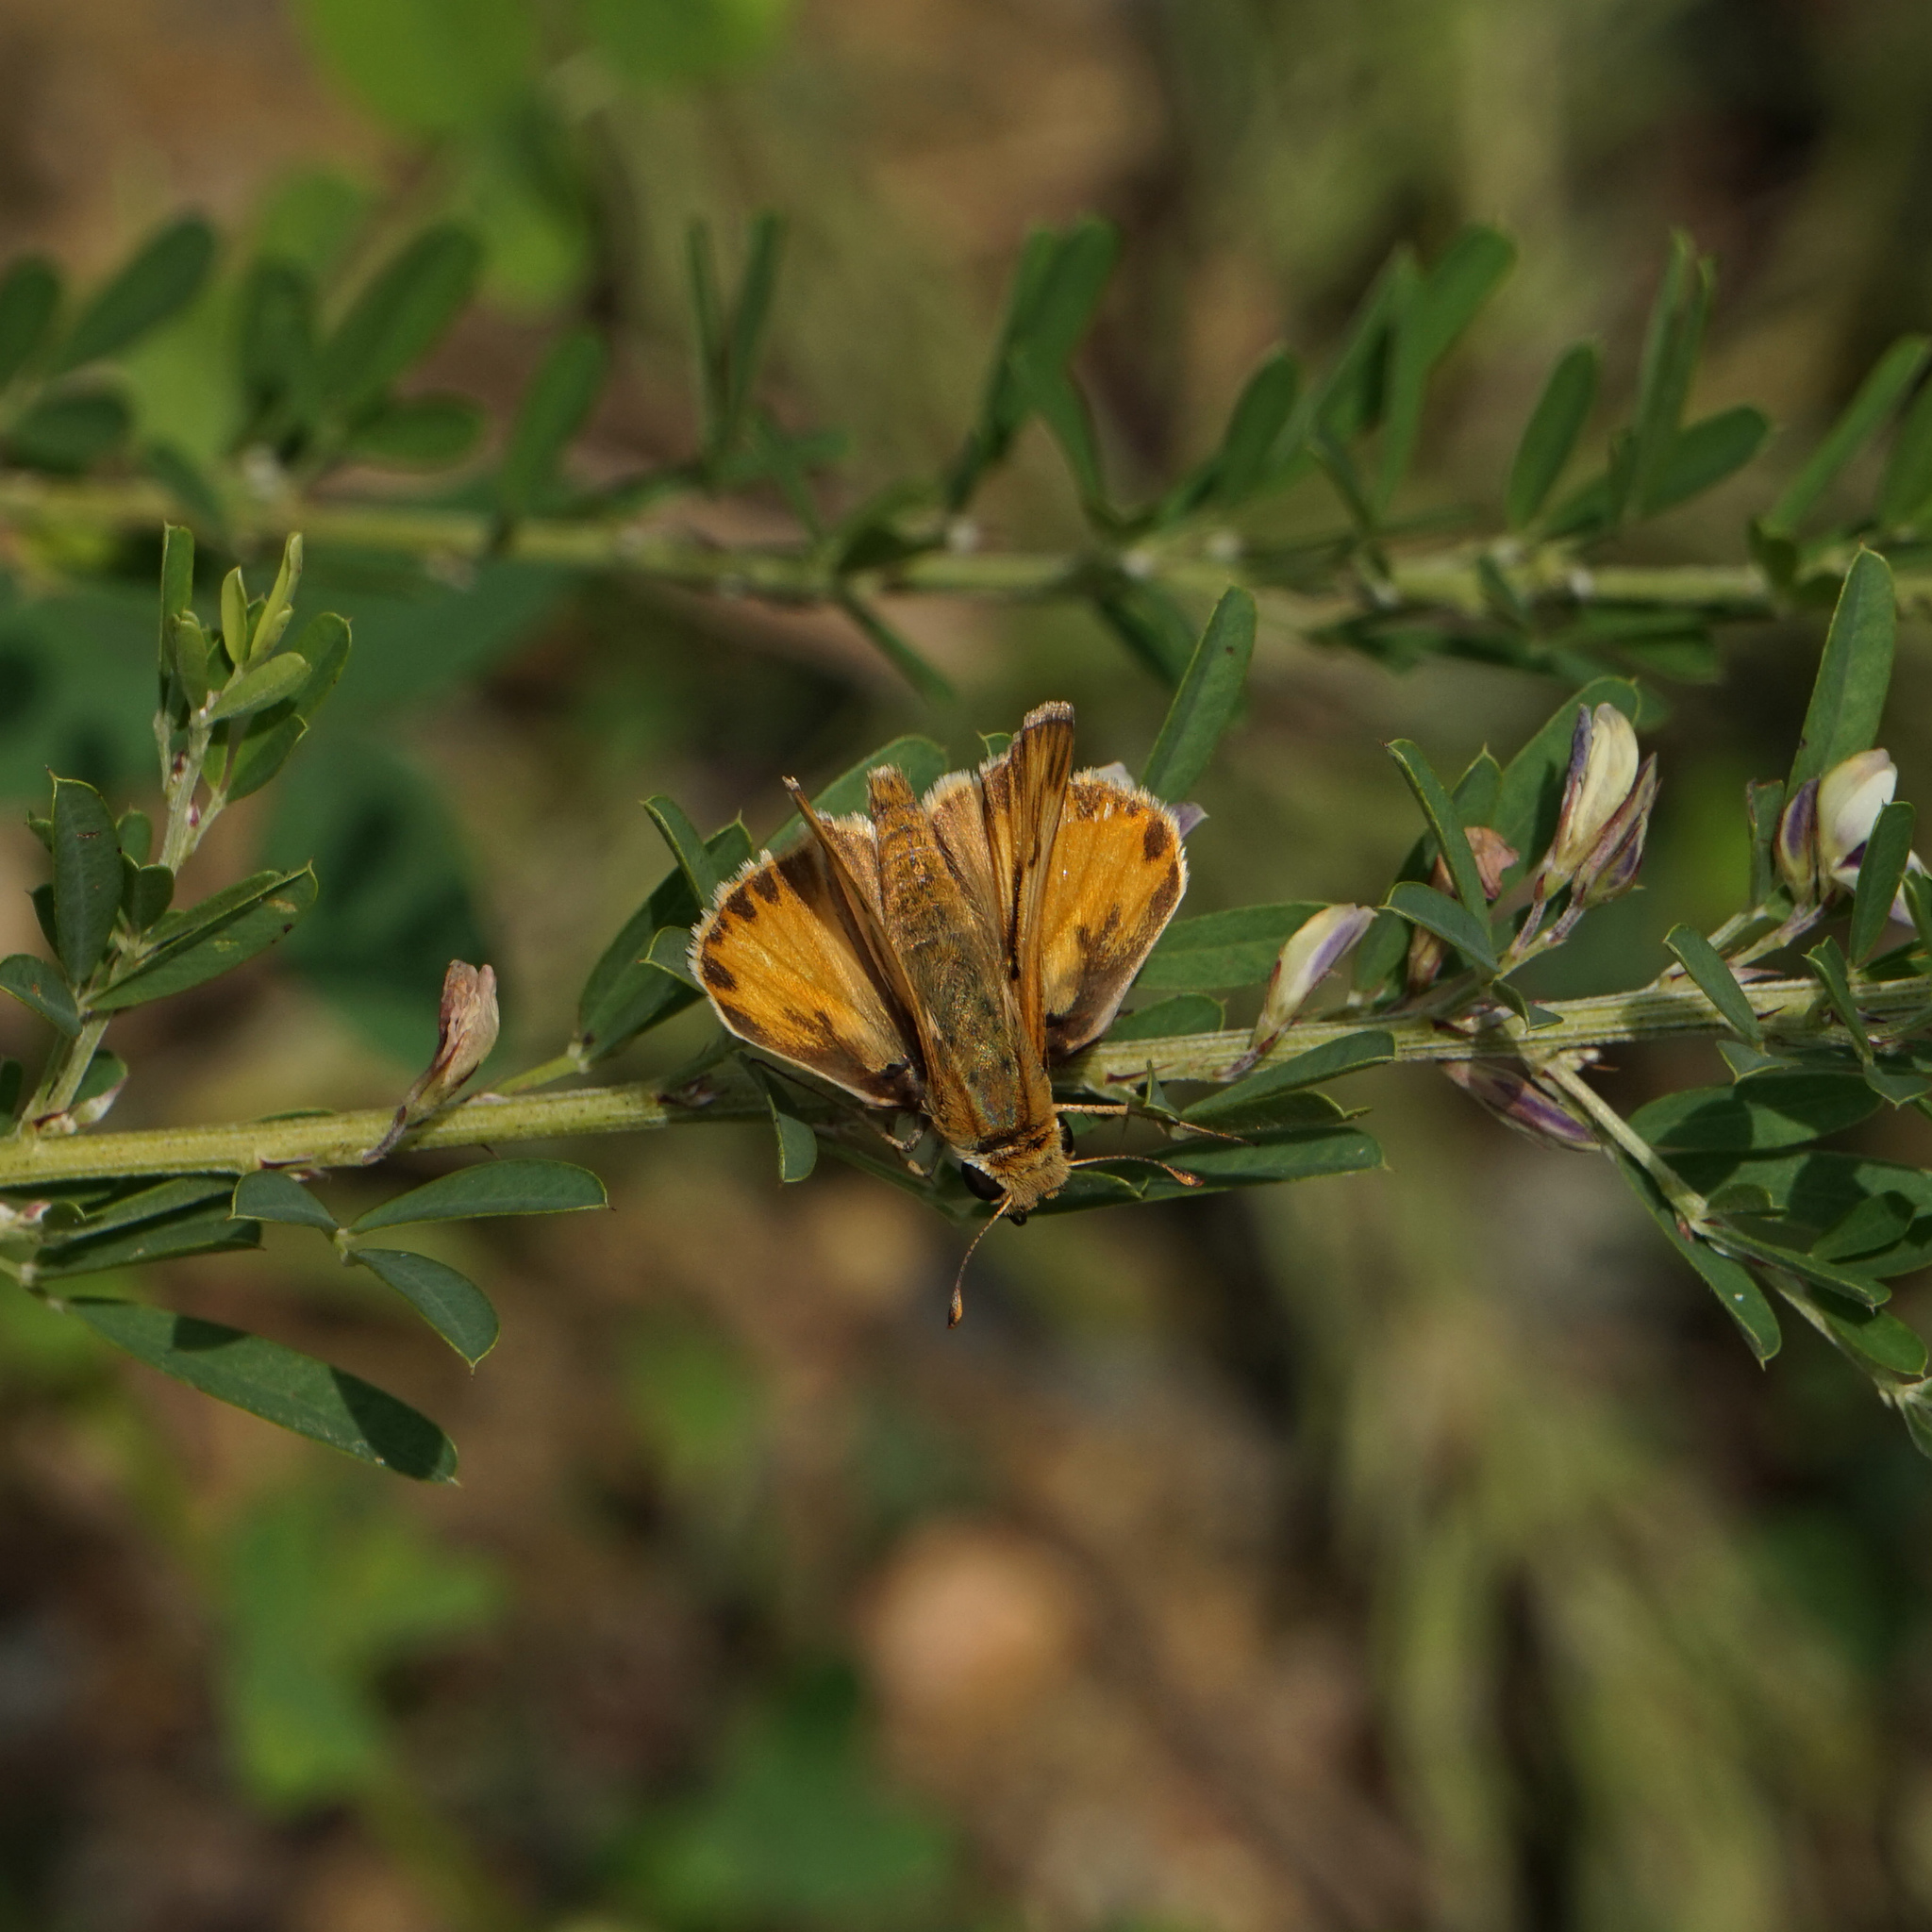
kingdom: Animalia
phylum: Arthropoda
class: Insecta
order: Lepidoptera
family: Hesperiidae
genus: Hylephila
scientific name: Hylephila phyleus
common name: Fiery skipper
